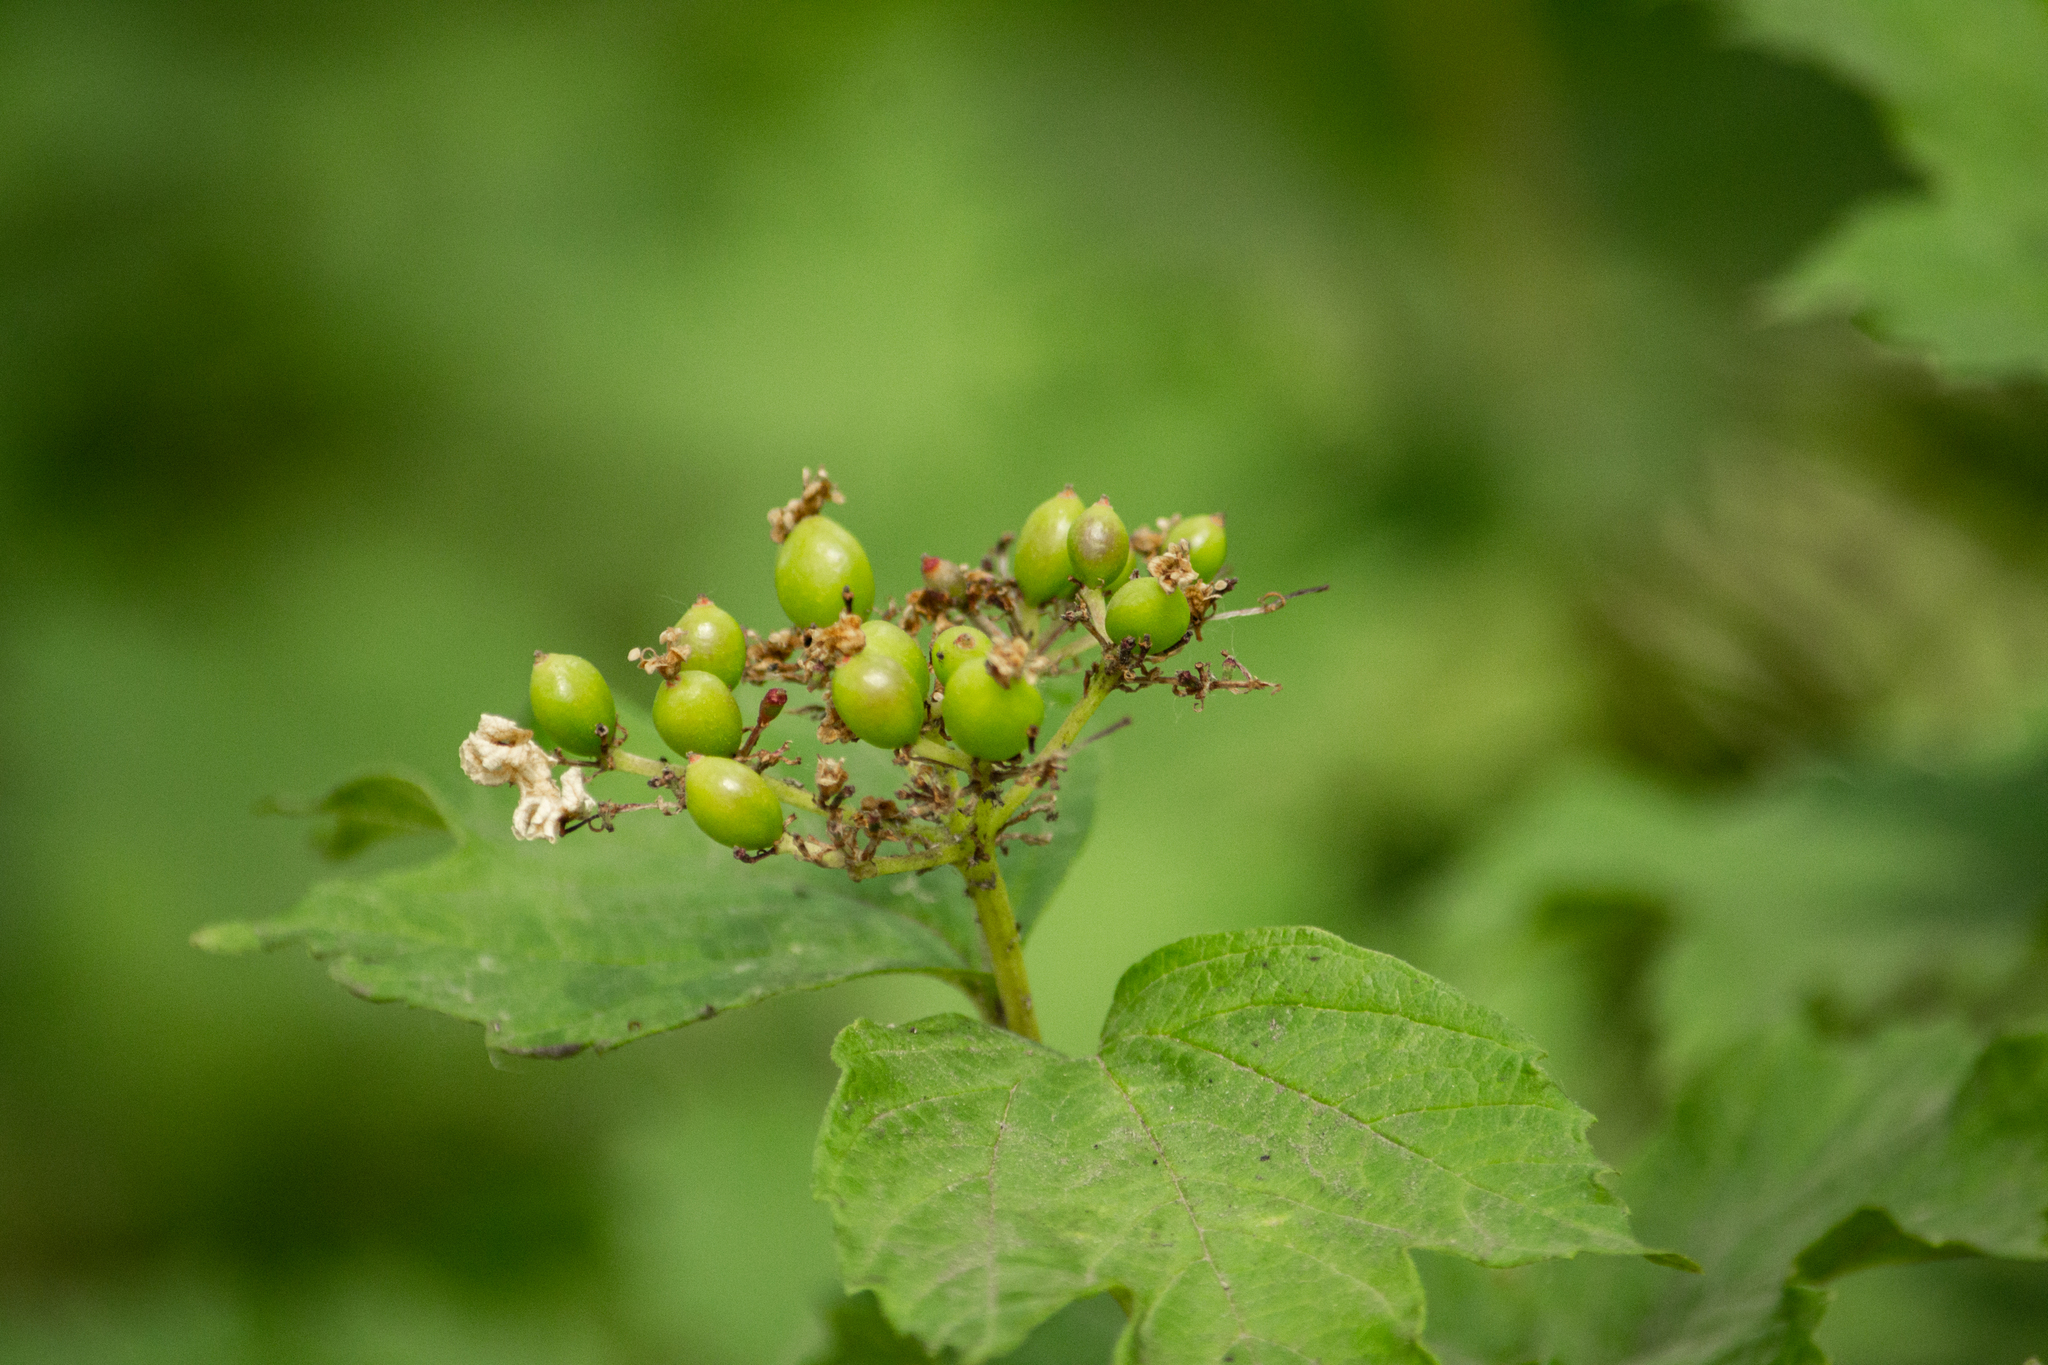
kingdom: Plantae
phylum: Tracheophyta
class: Magnoliopsida
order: Dipsacales
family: Viburnaceae
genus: Viburnum
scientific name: Viburnum opulus
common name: Guelder-rose
